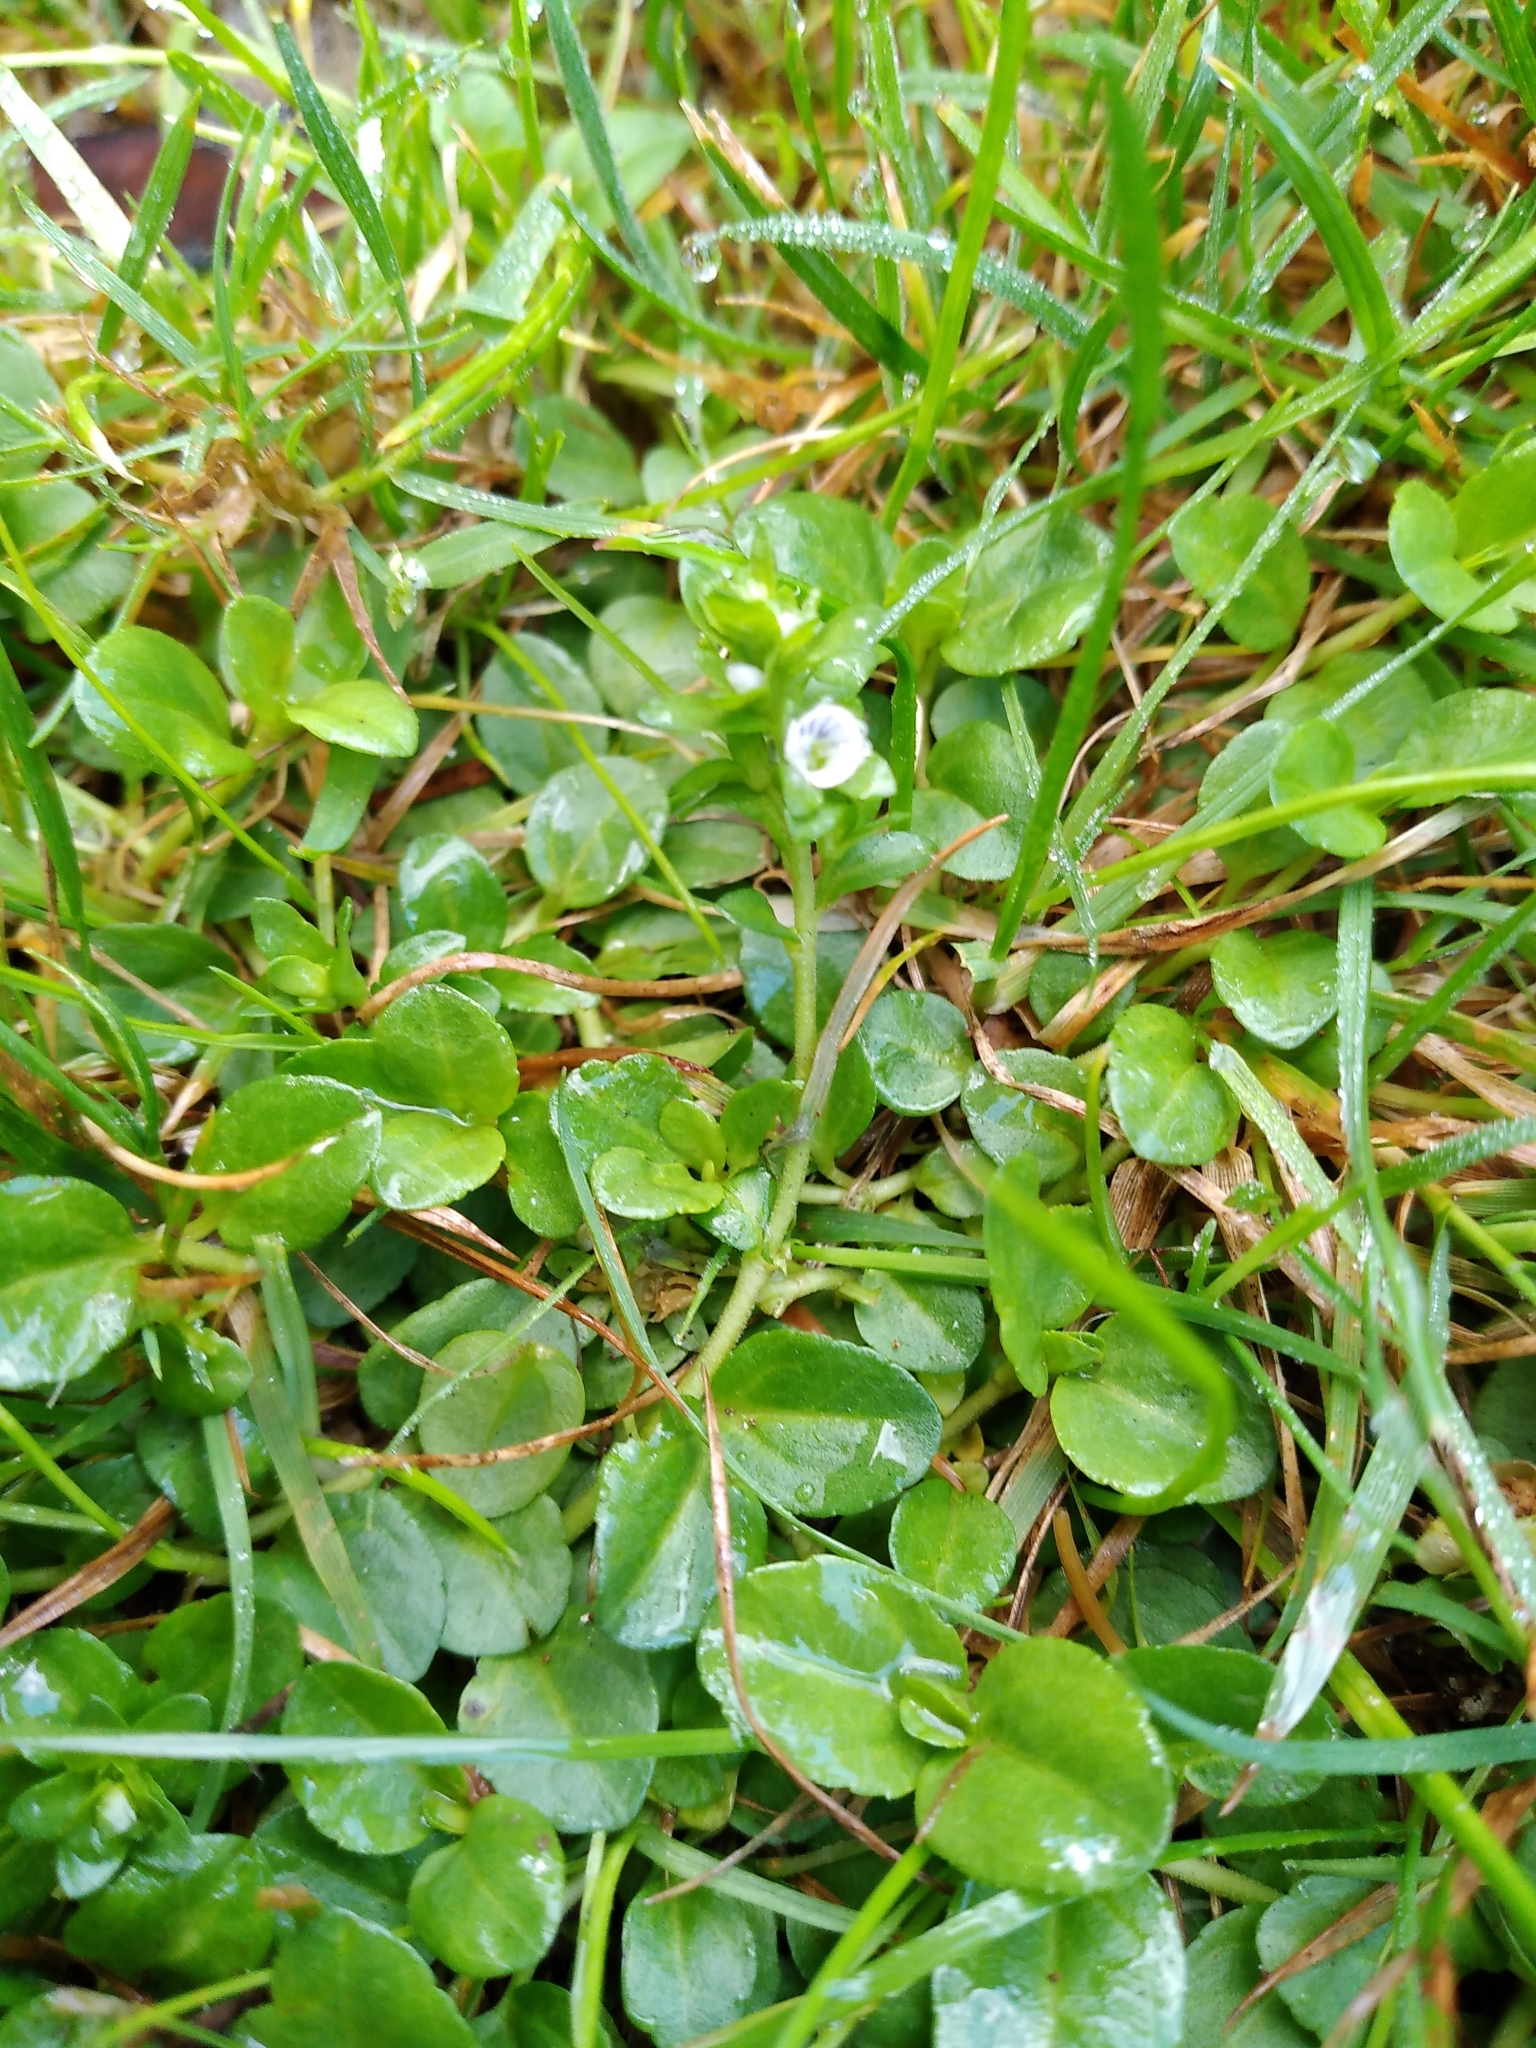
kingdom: Plantae
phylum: Tracheophyta
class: Magnoliopsida
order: Lamiales
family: Plantaginaceae
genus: Veronica
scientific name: Veronica serpyllifolia
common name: Thyme-leaved speedwell
